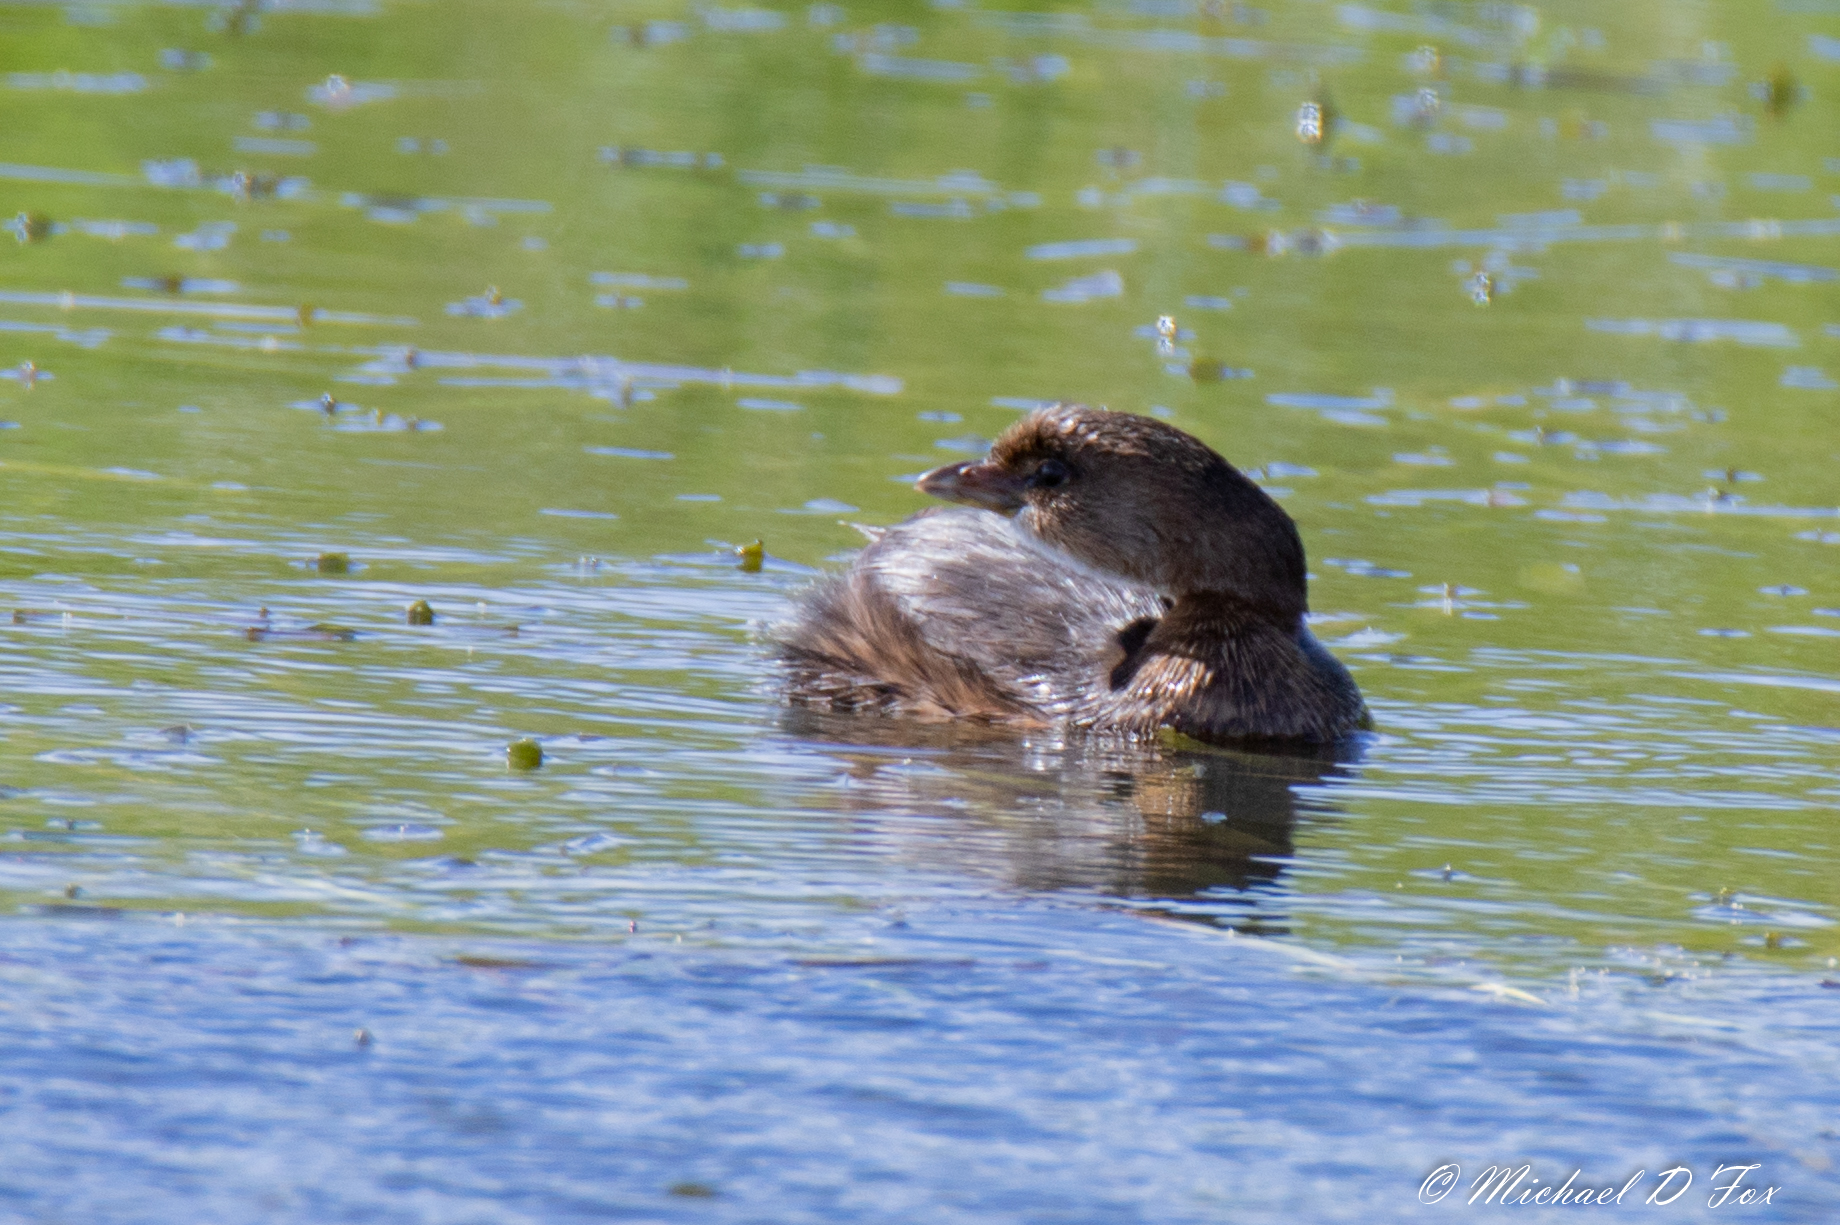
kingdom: Animalia
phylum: Chordata
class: Aves
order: Podicipediformes
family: Podicipedidae
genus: Podilymbus
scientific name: Podilymbus podiceps
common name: Pied-billed grebe
